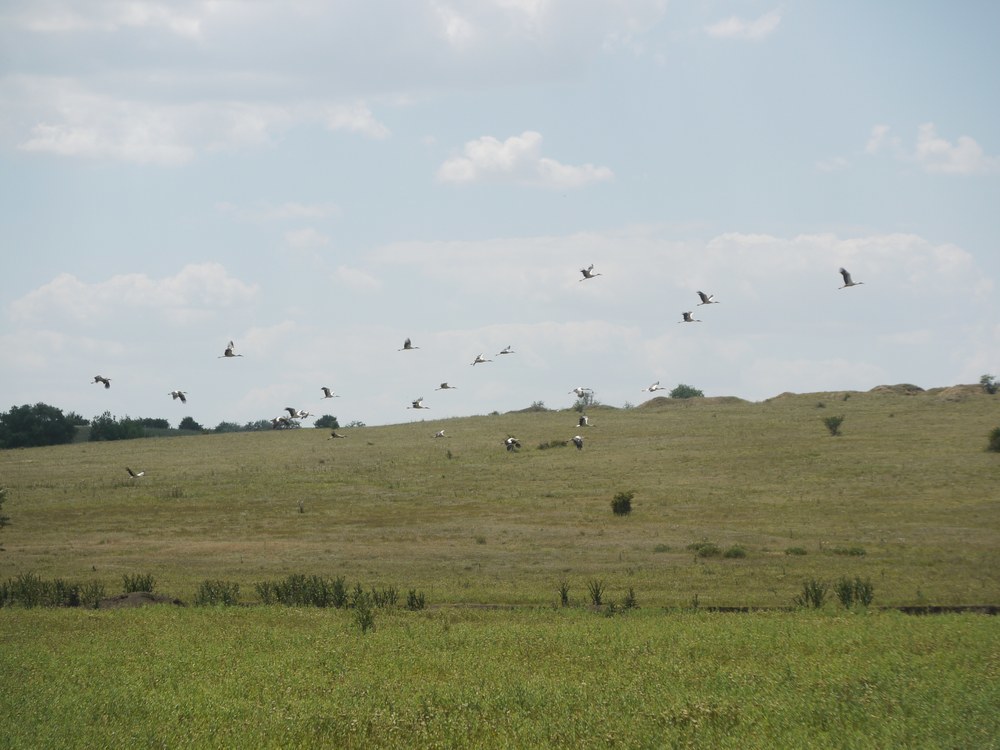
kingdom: Animalia
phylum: Chordata
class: Aves
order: Ciconiiformes
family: Ciconiidae
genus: Ciconia
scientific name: Ciconia ciconia
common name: White stork
